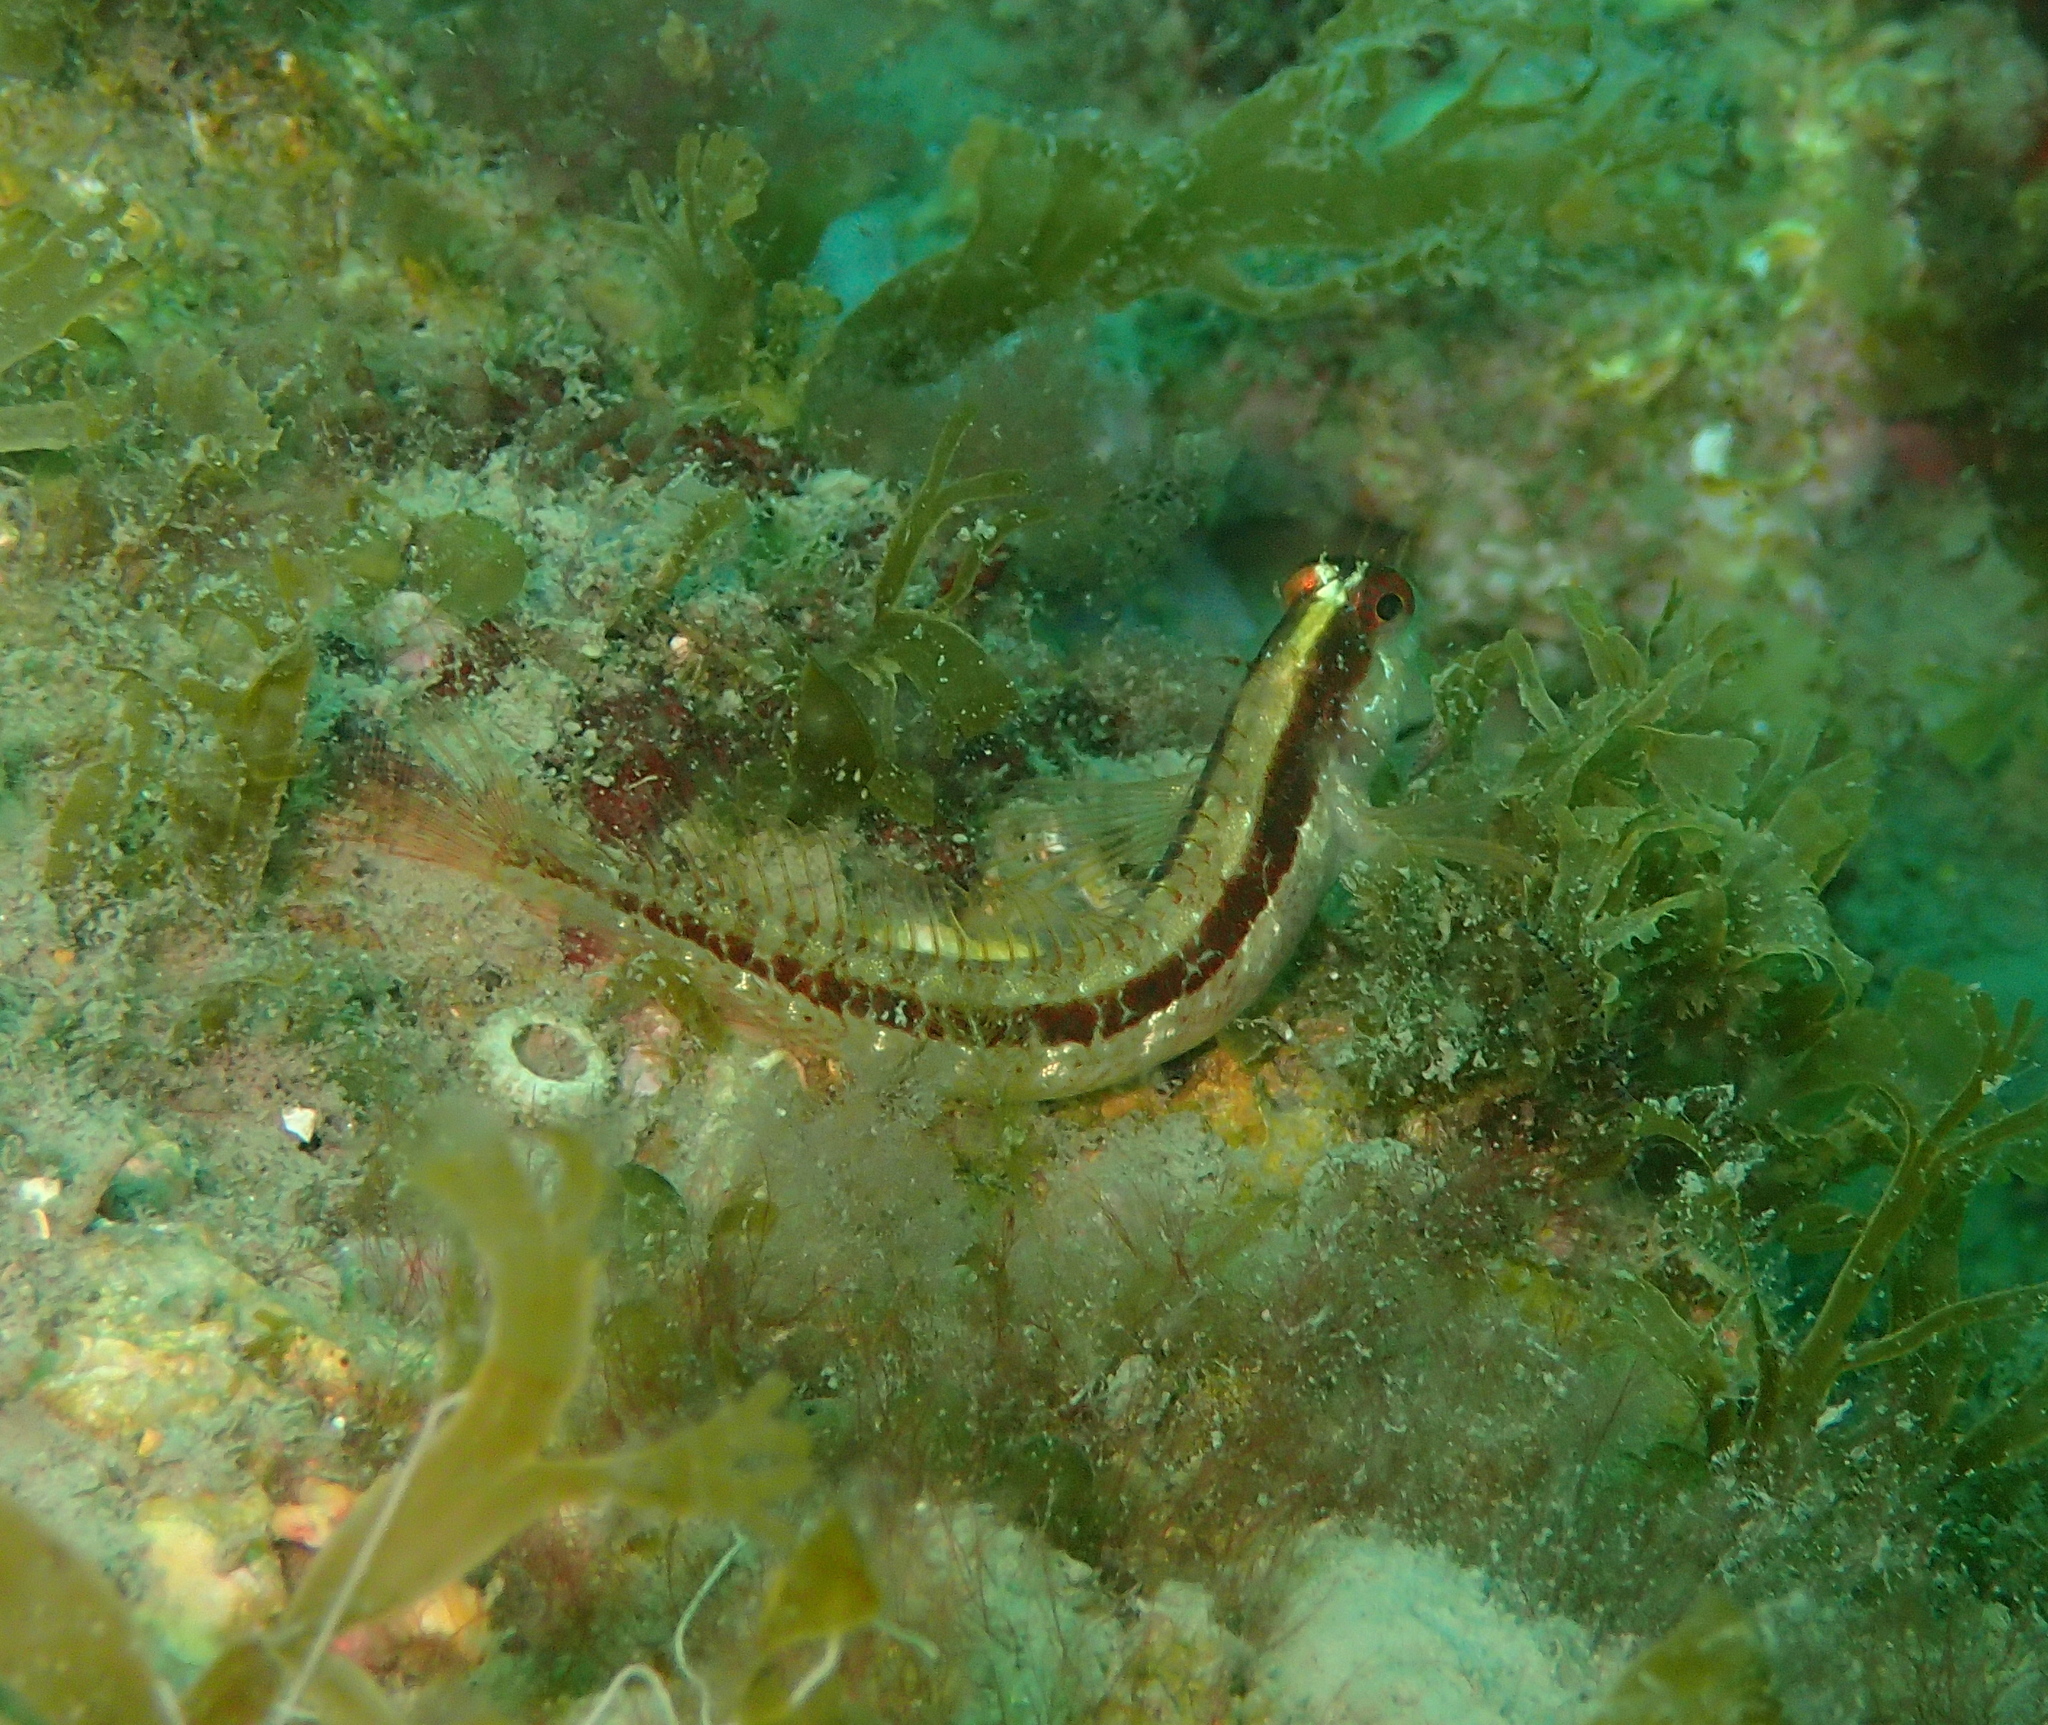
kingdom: Animalia
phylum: Chordata
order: Perciformes
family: Blenniidae
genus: Parablennius
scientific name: Parablennius rouxi
